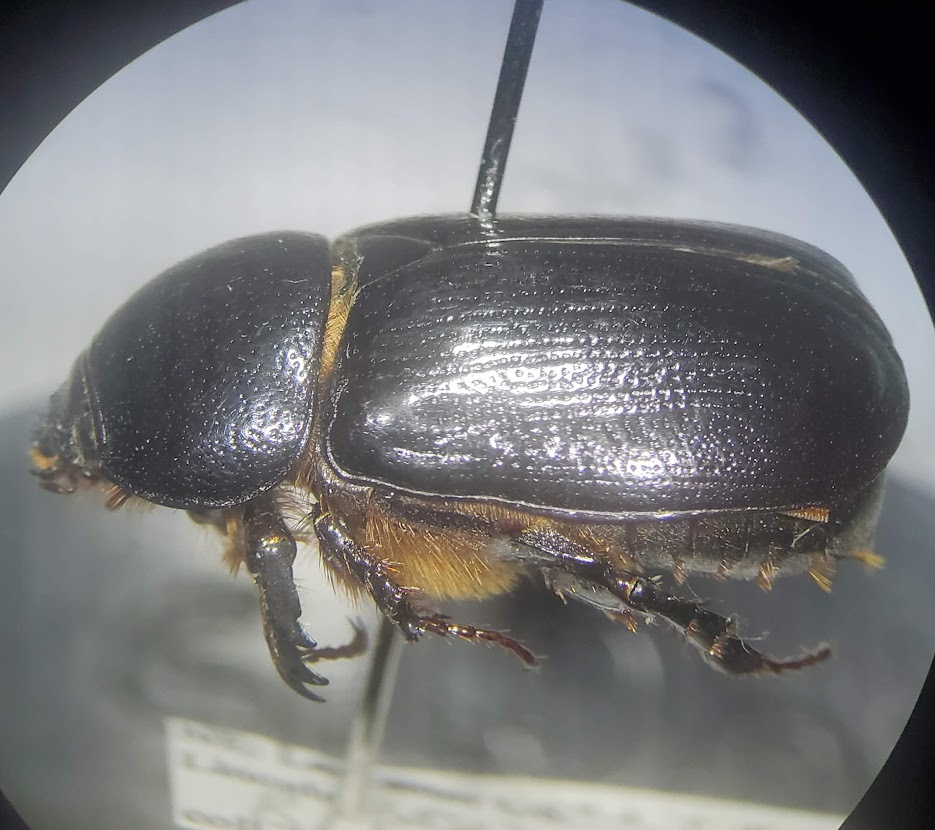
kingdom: Animalia
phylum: Arthropoda
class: Insecta
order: Coleoptera
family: Scarabaeidae
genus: Ligyrus
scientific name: Ligyrus relictus
